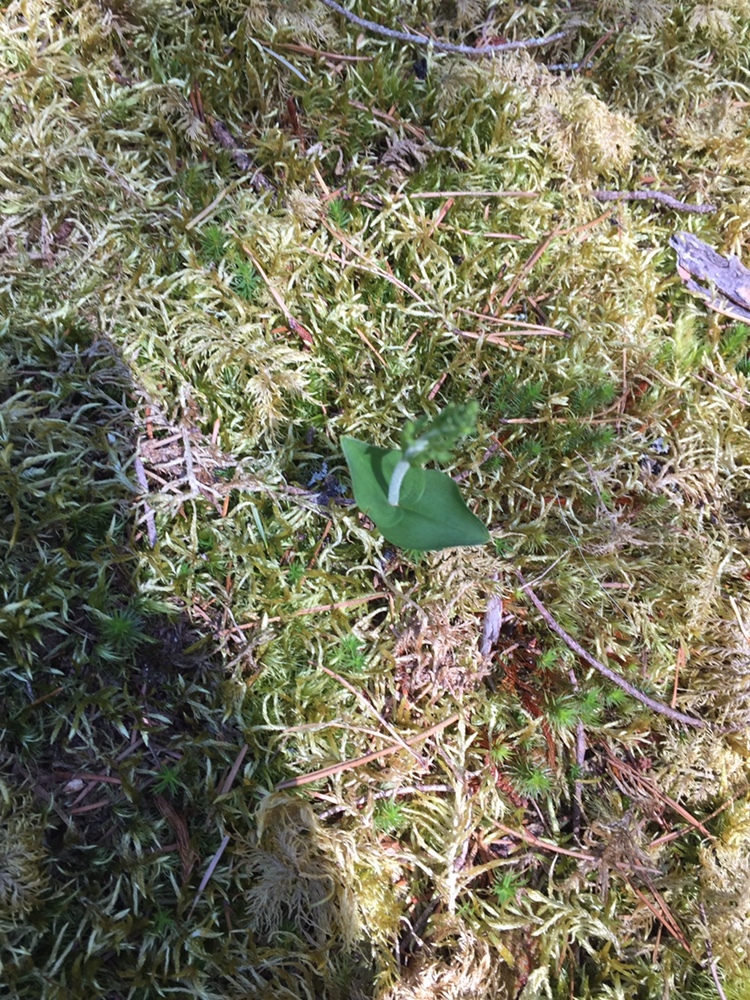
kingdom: Plantae
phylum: Tracheophyta
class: Liliopsida
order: Asparagales
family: Orchidaceae
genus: Neottia
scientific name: Neottia cordata
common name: Lesser twayblade
